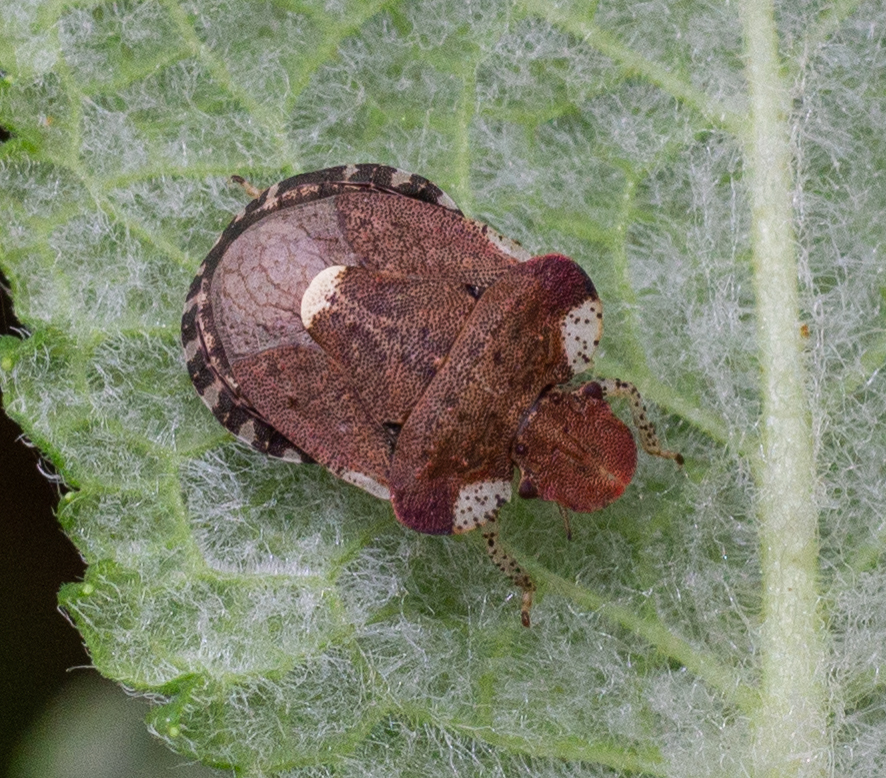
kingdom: Animalia
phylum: Arthropoda
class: Insecta
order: Hemiptera
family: Pentatomidae
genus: Dyroderes
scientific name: Dyroderes umbraculatus
